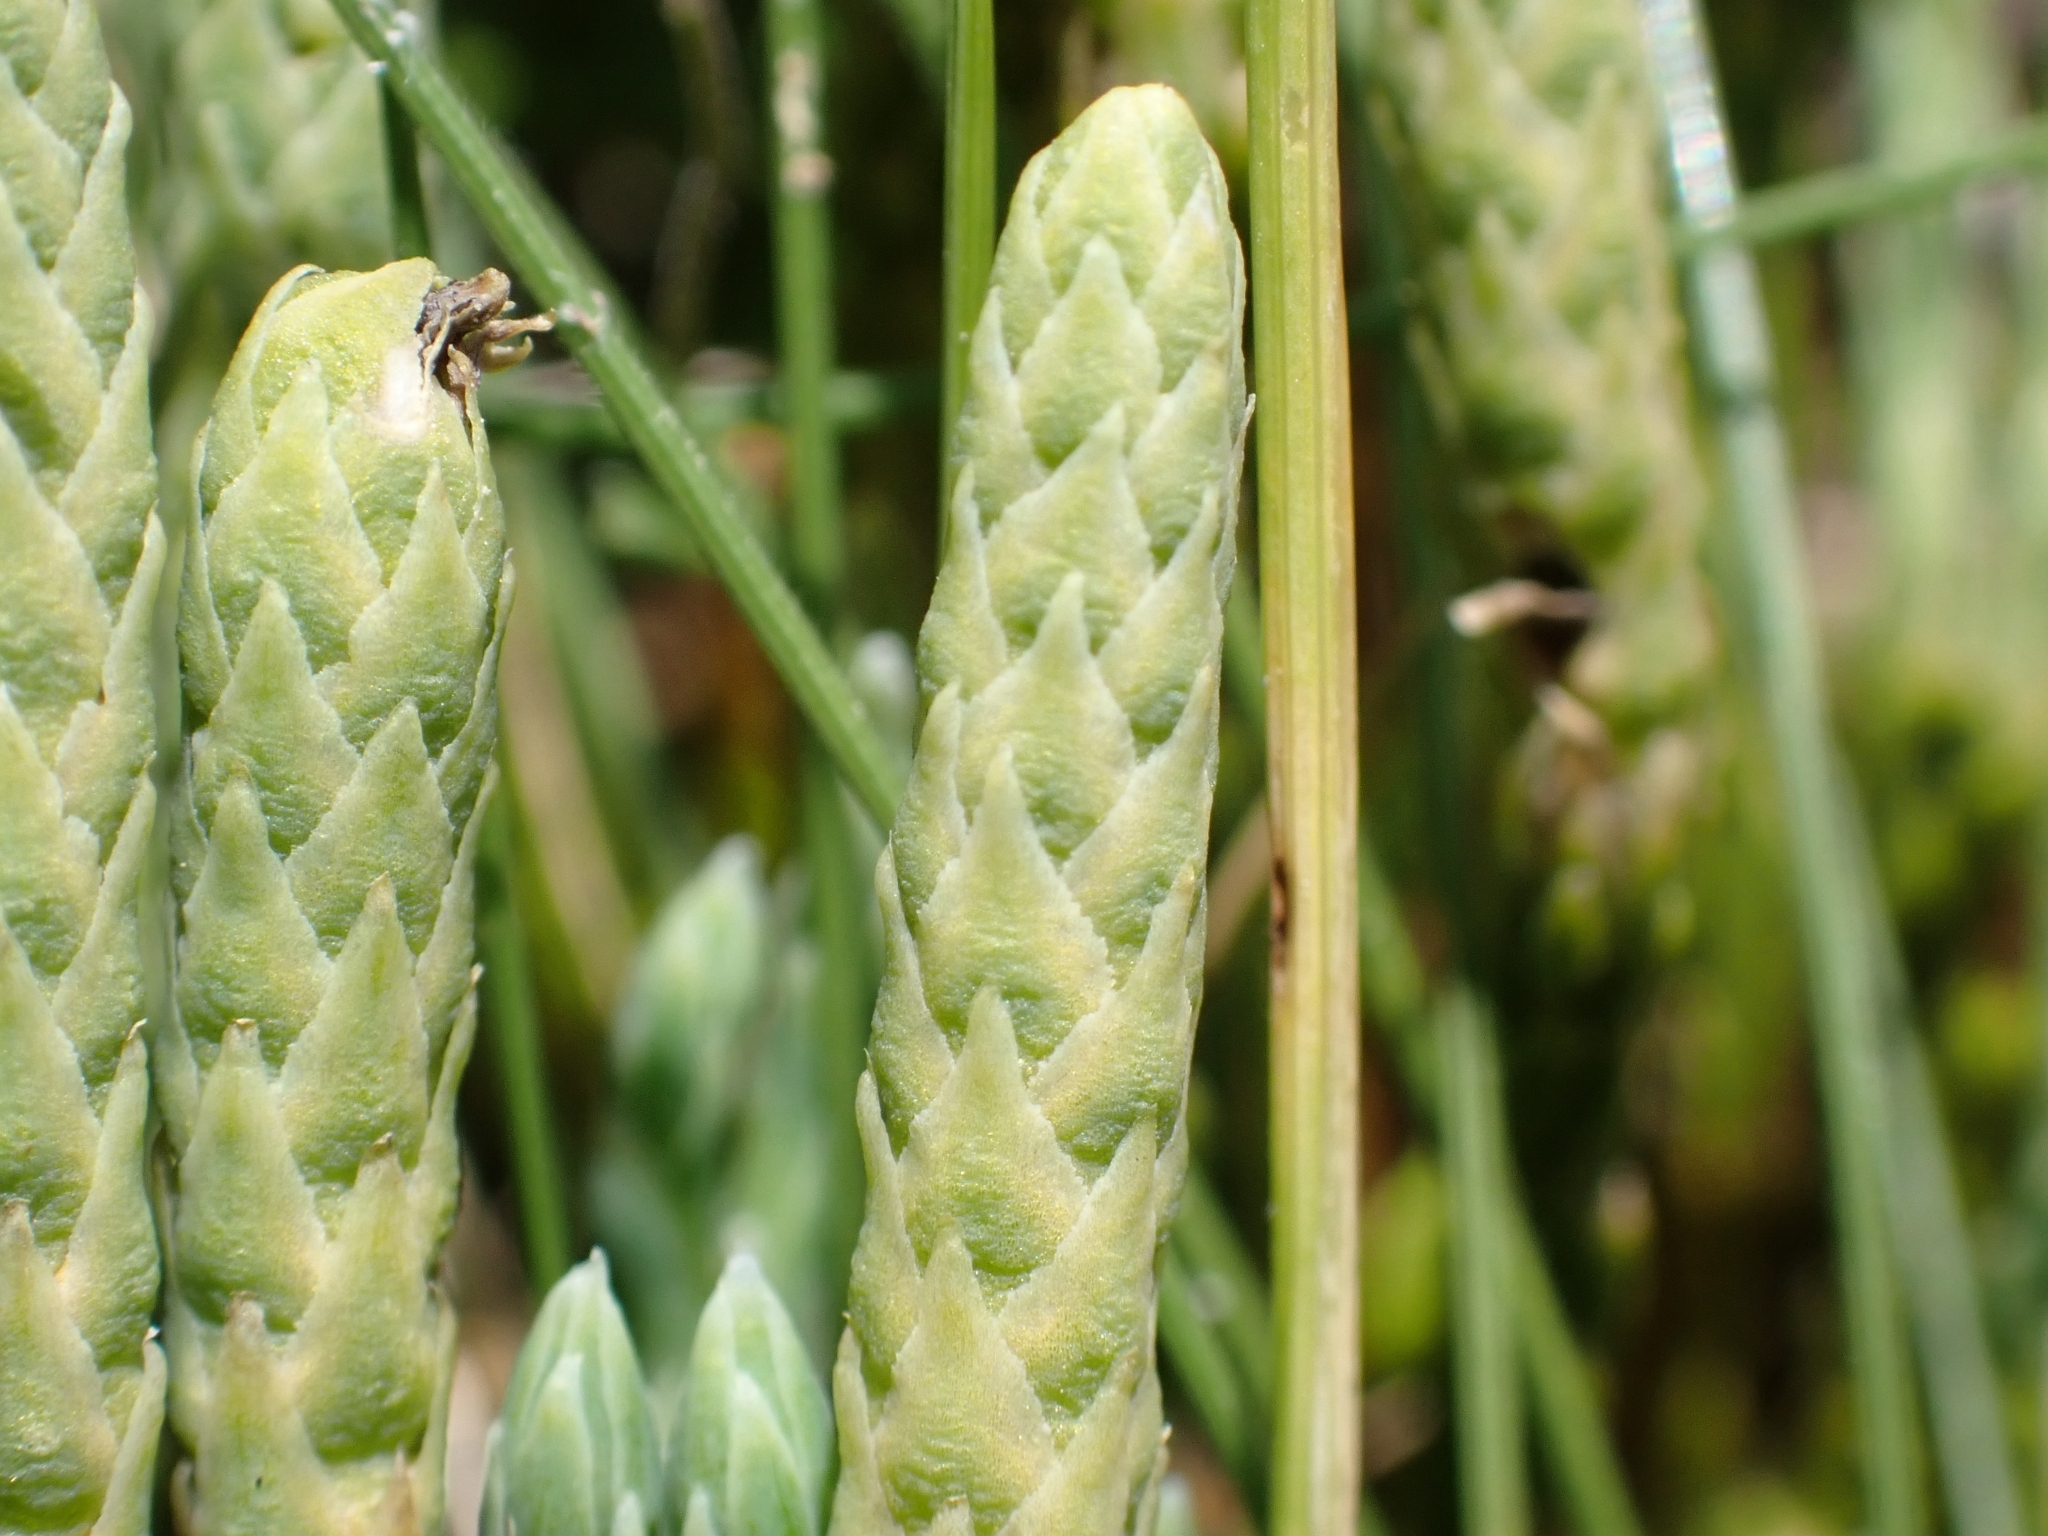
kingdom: Plantae
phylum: Tracheophyta
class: Lycopodiopsida
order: Lycopodiales
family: Lycopodiaceae
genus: Diphasiastrum
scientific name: Diphasiastrum alpinum
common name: Alpine clubmoss
